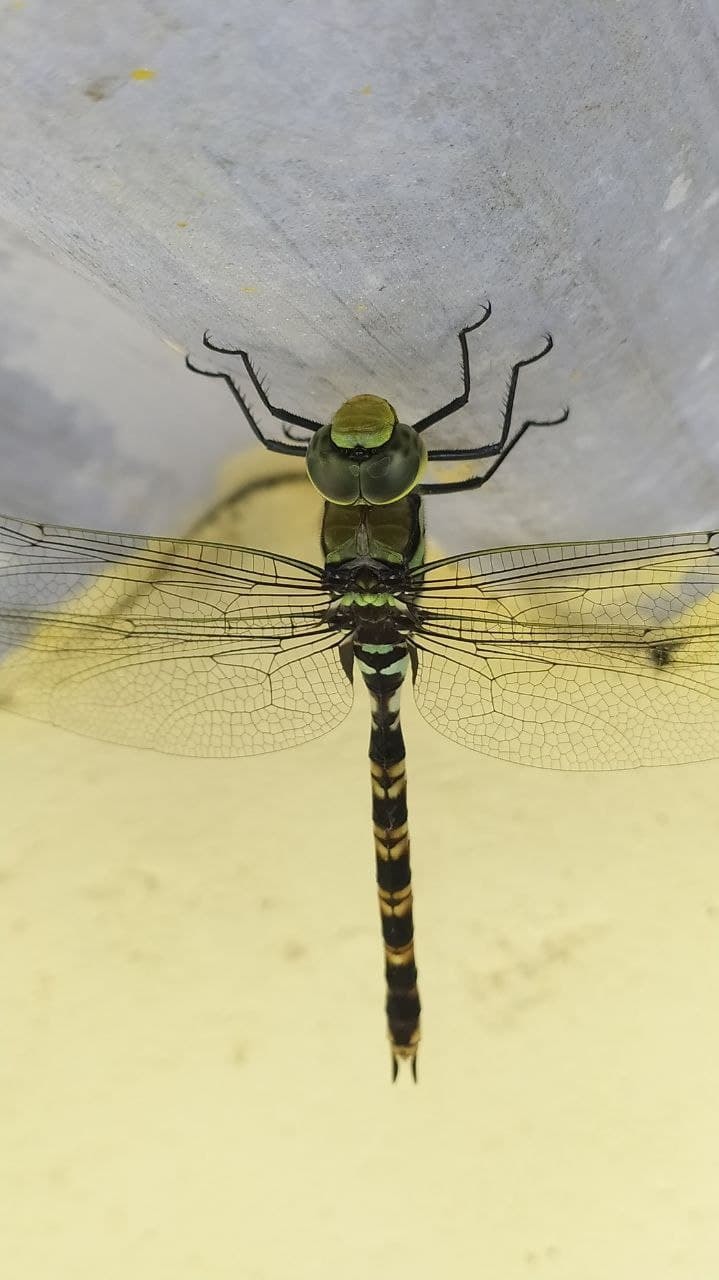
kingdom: Animalia
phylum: Arthropoda
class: Insecta
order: Odonata
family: Aeshnidae
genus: Anax
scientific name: Anax immaculifrons
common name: Magnificent emperor
